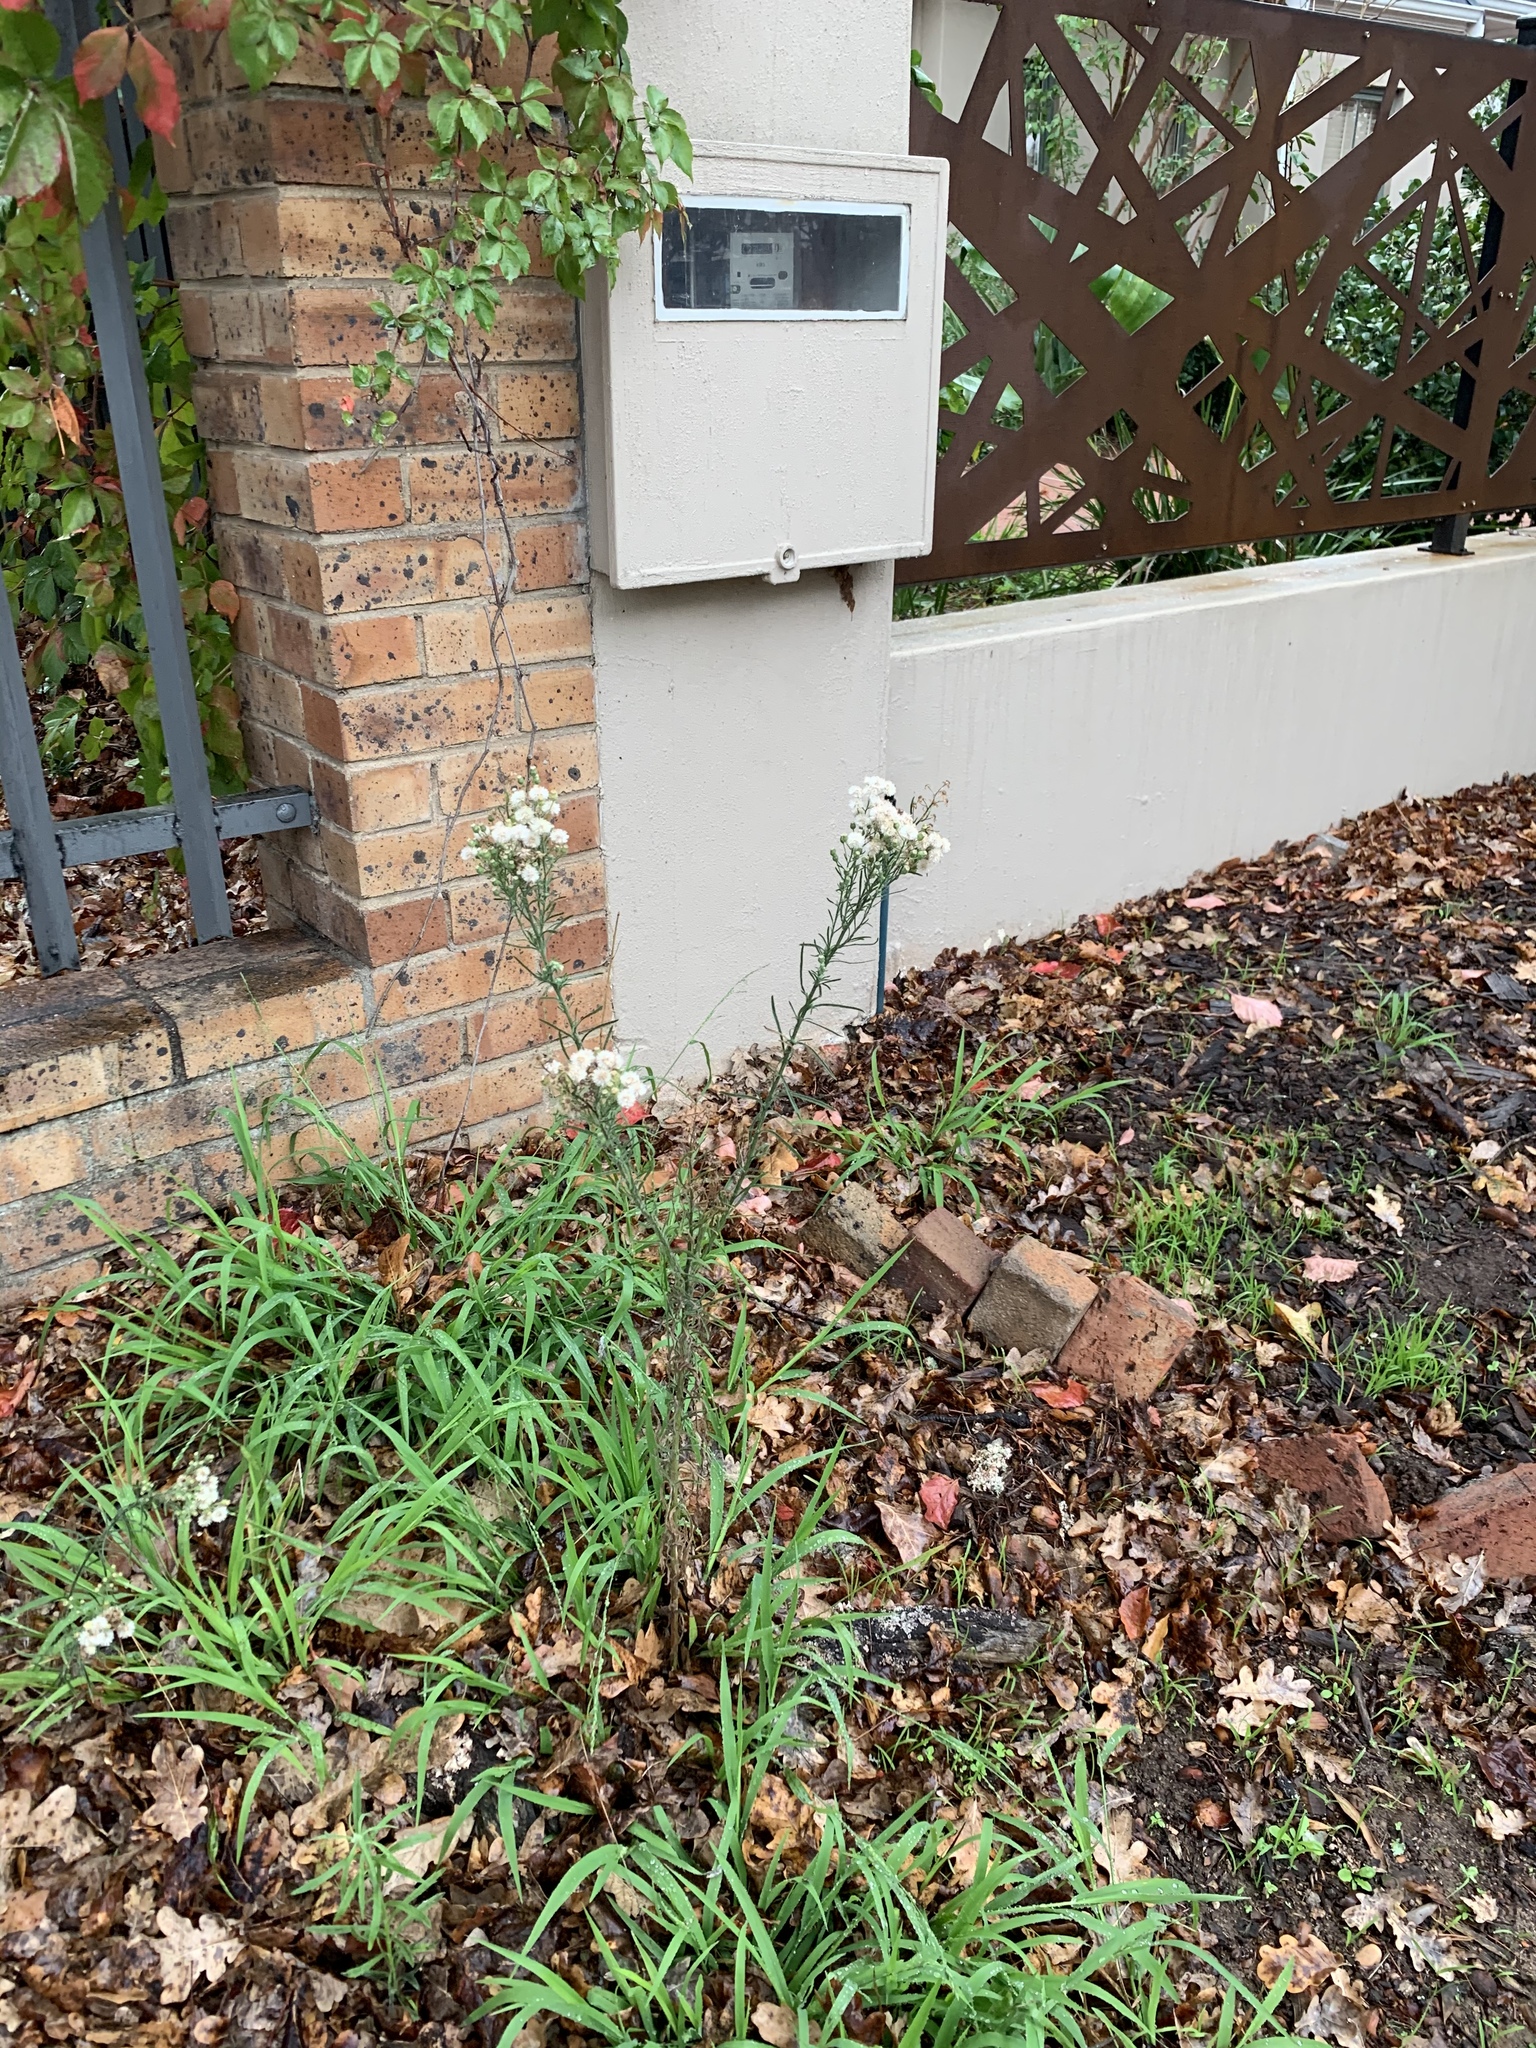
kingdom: Plantae
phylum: Tracheophyta
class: Magnoliopsida
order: Asterales
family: Asteraceae
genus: Erigeron
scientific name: Erigeron bonariensis
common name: Argentine fleabane
